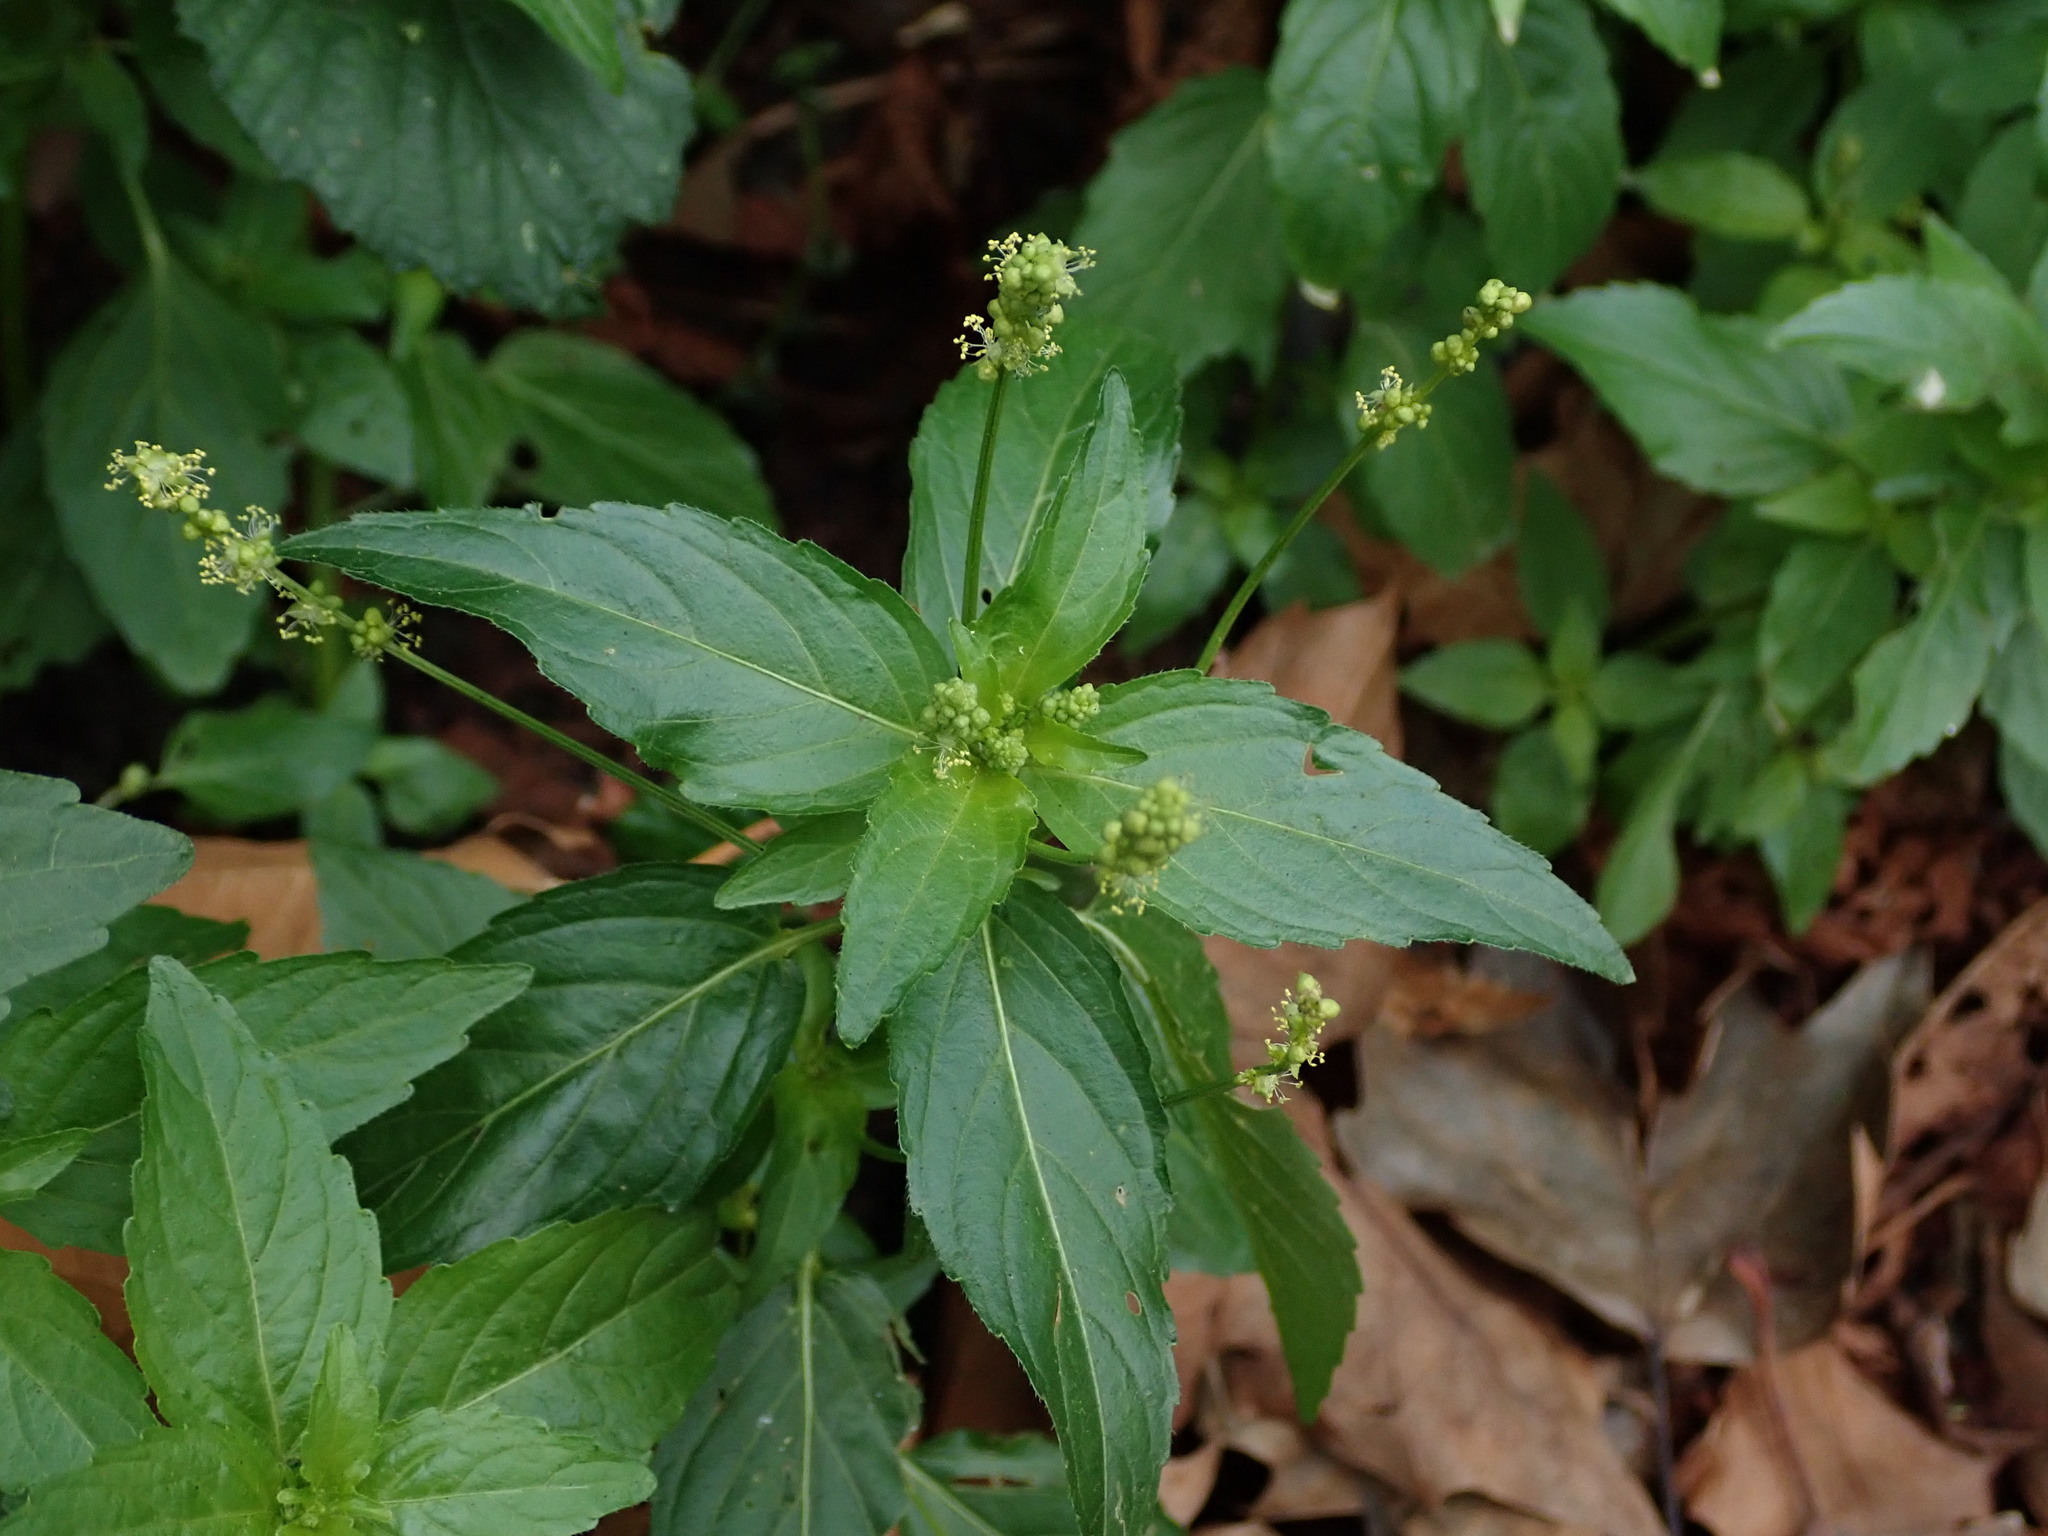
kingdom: Plantae
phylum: Tracheophyta
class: Magnoliopsida
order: Malpighiales
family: Euphorbiaceae
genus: Mercurialis
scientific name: Mercurialis annua
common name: Annual mercury
